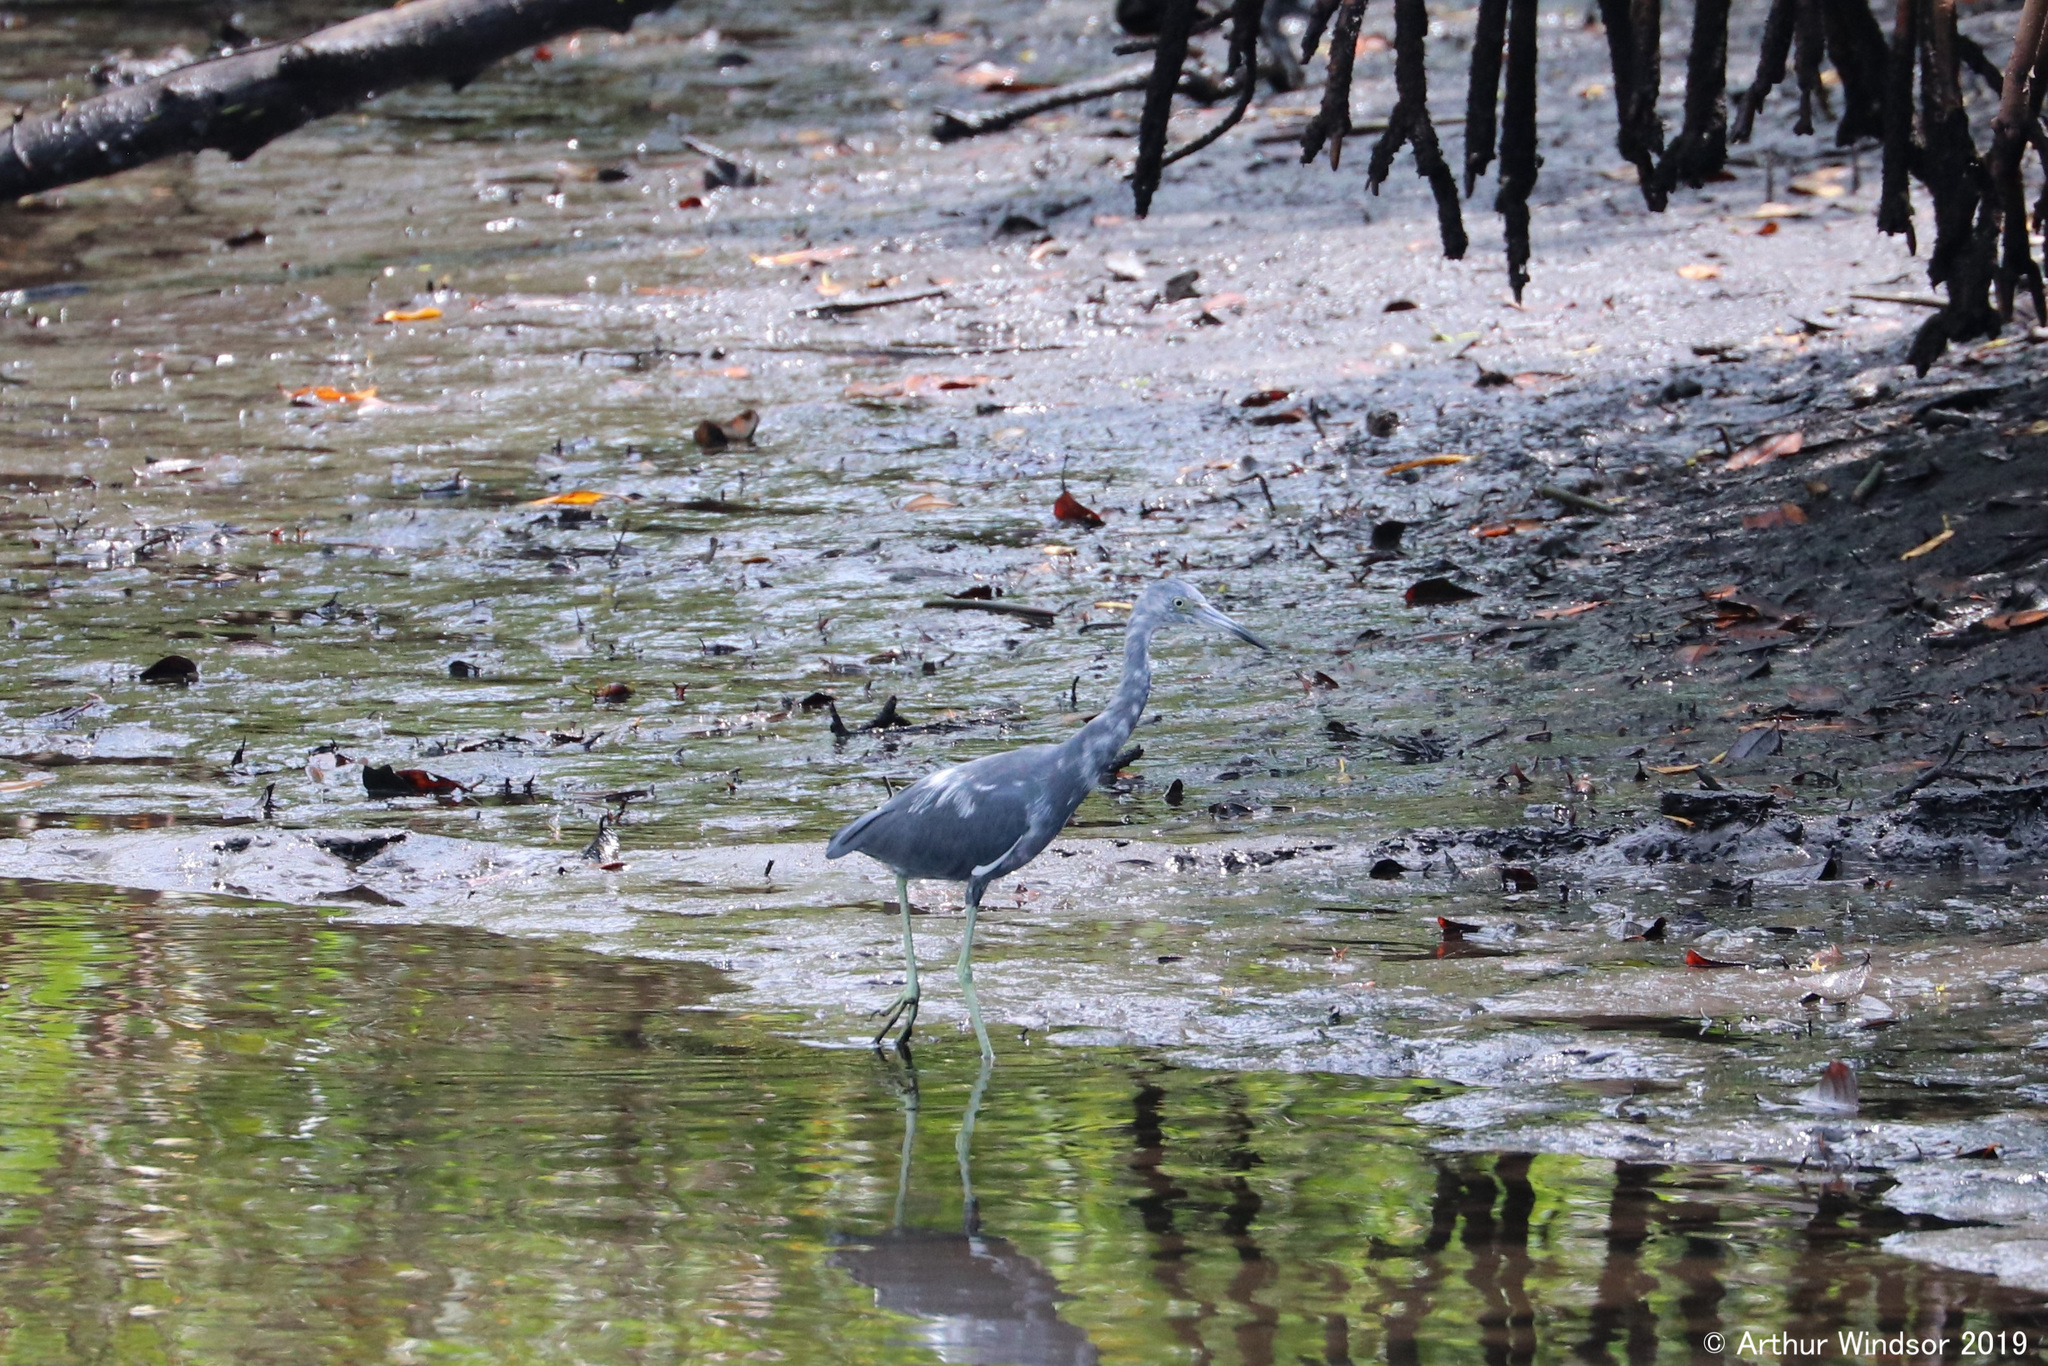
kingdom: Animalia
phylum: Chordata
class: Aves
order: Pelecaniformes
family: Ardeidae
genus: Egretta
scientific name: Egretta caerulea
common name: Little blue heron
